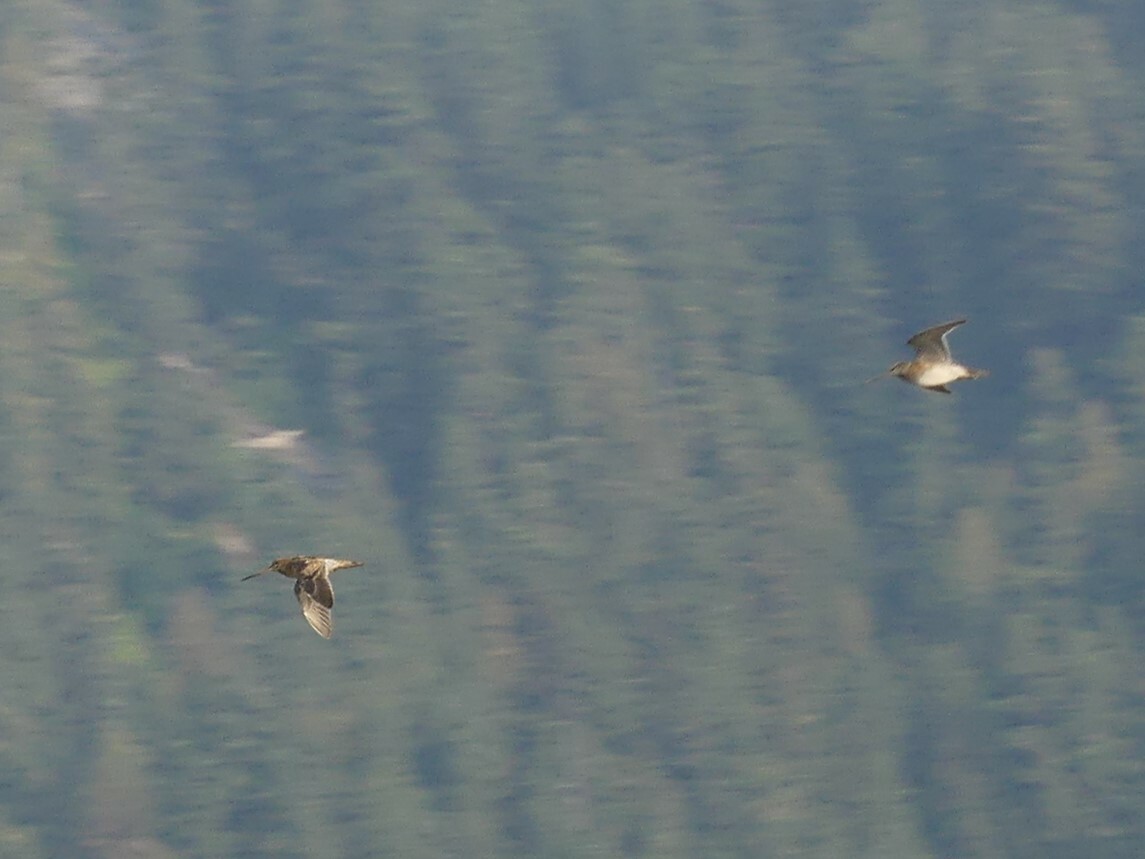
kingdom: Animalia
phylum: Chordata
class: Aves
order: Charadriiformes
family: Scolopacidae
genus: Gallinago
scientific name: Gallinago delicata
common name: Wilson's snipe
